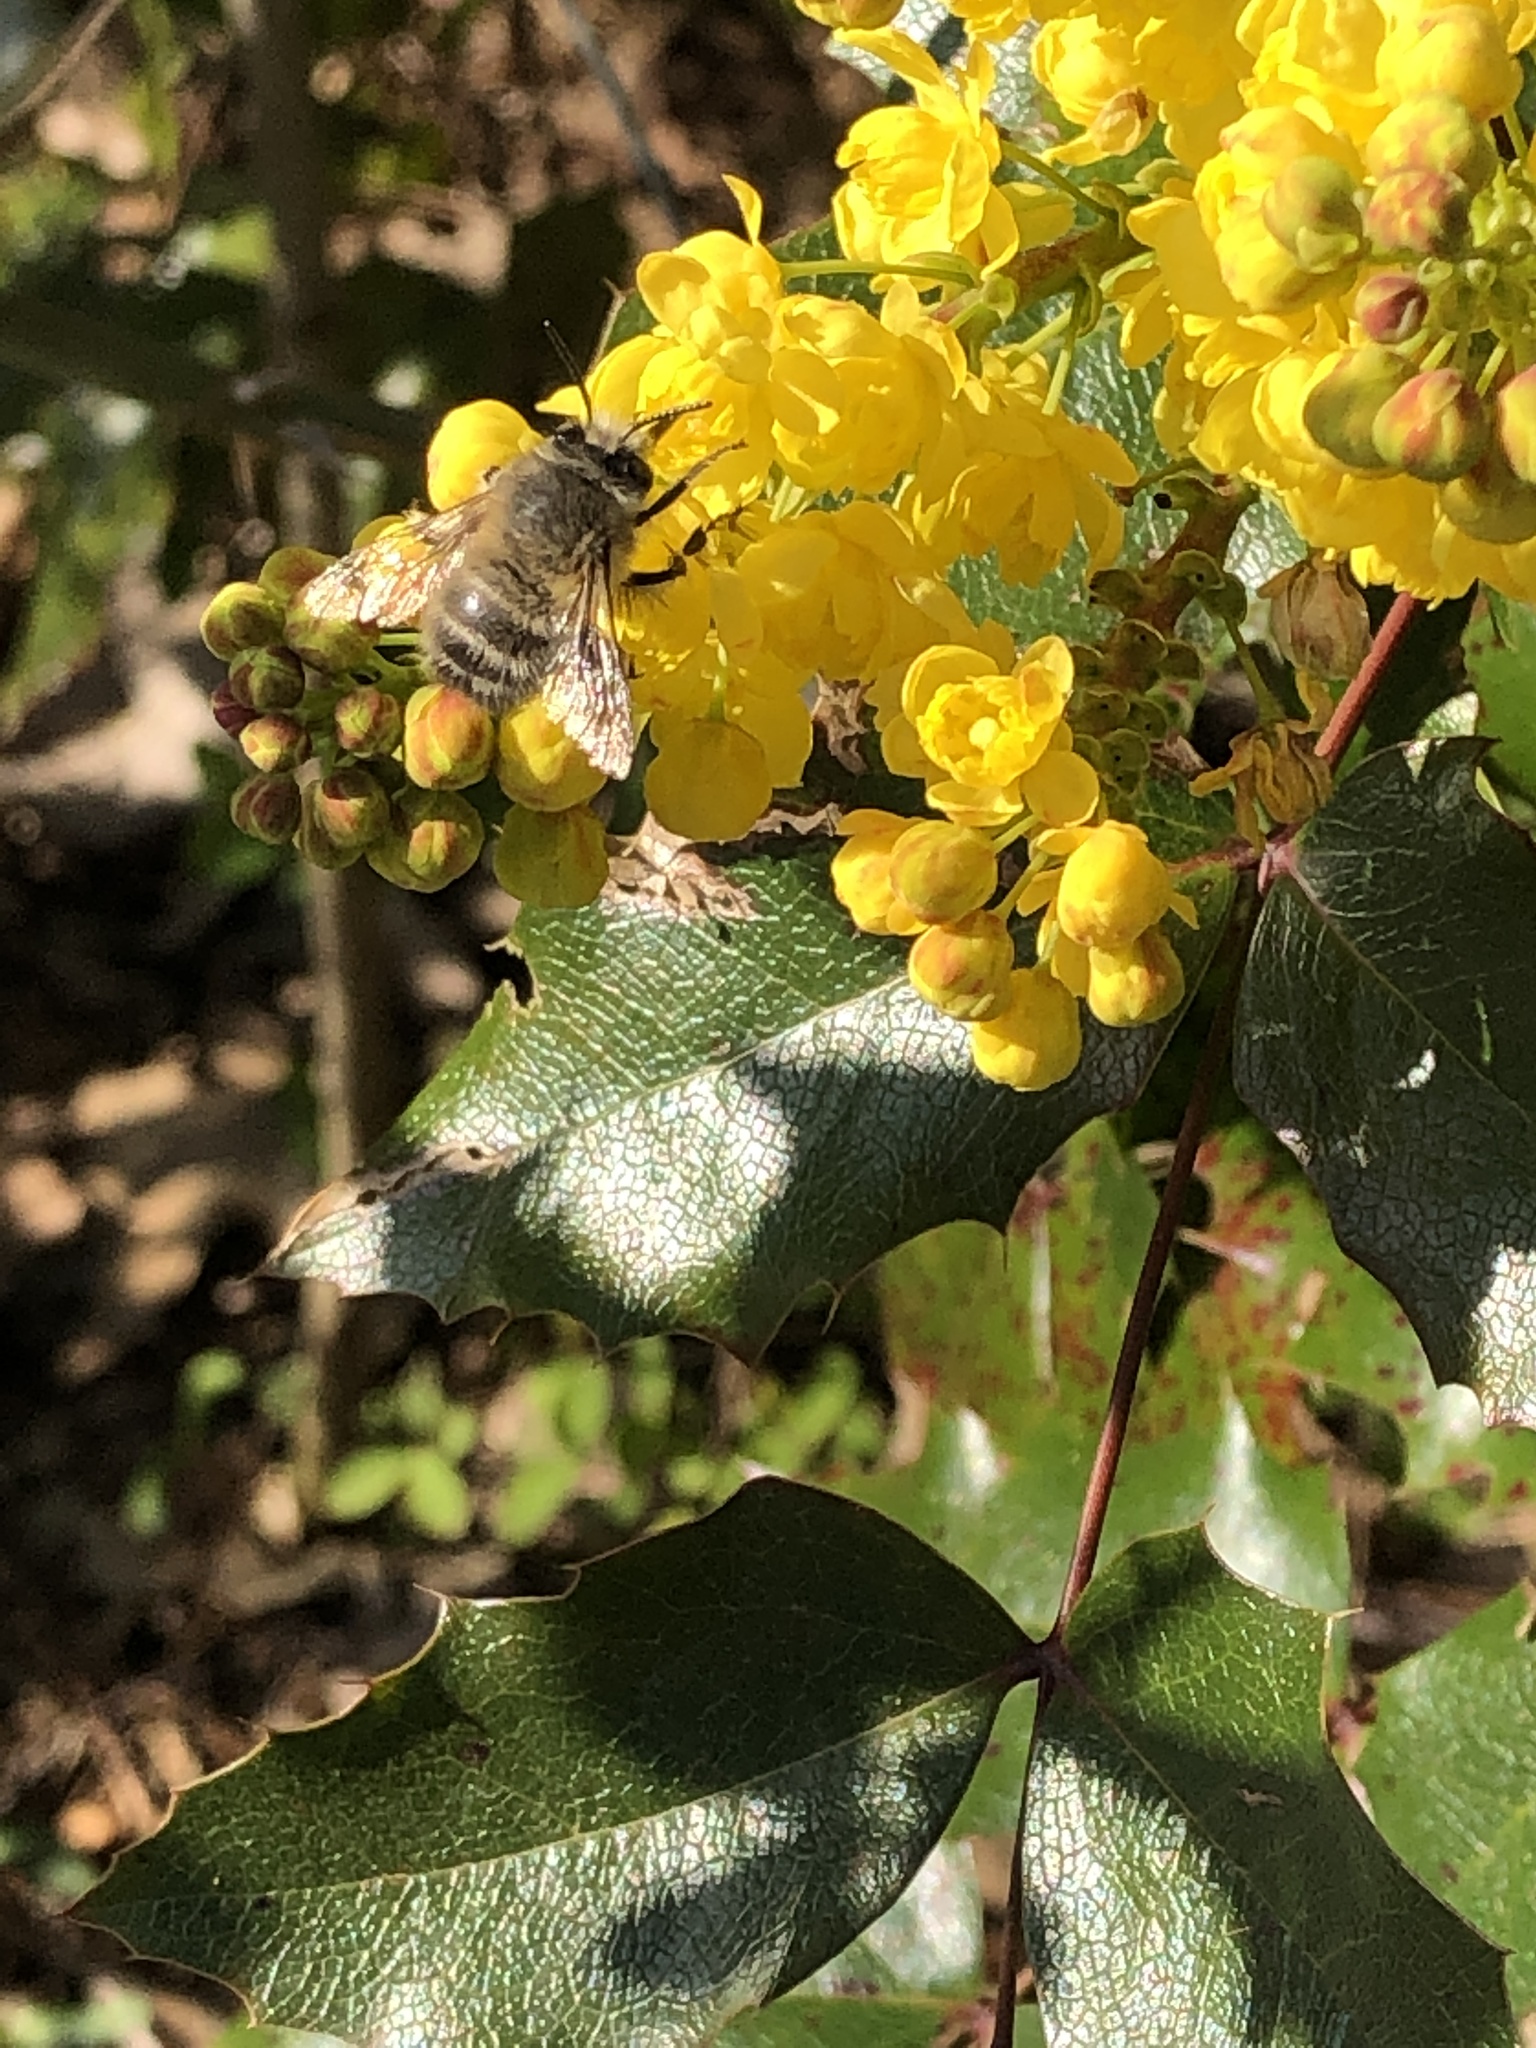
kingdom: Animalia
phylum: Arthropoda
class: Insecta
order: Hymenoptera
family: Apidae
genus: Anthophora
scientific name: Anthophora plumipes
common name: Hairy-footed flower bee
